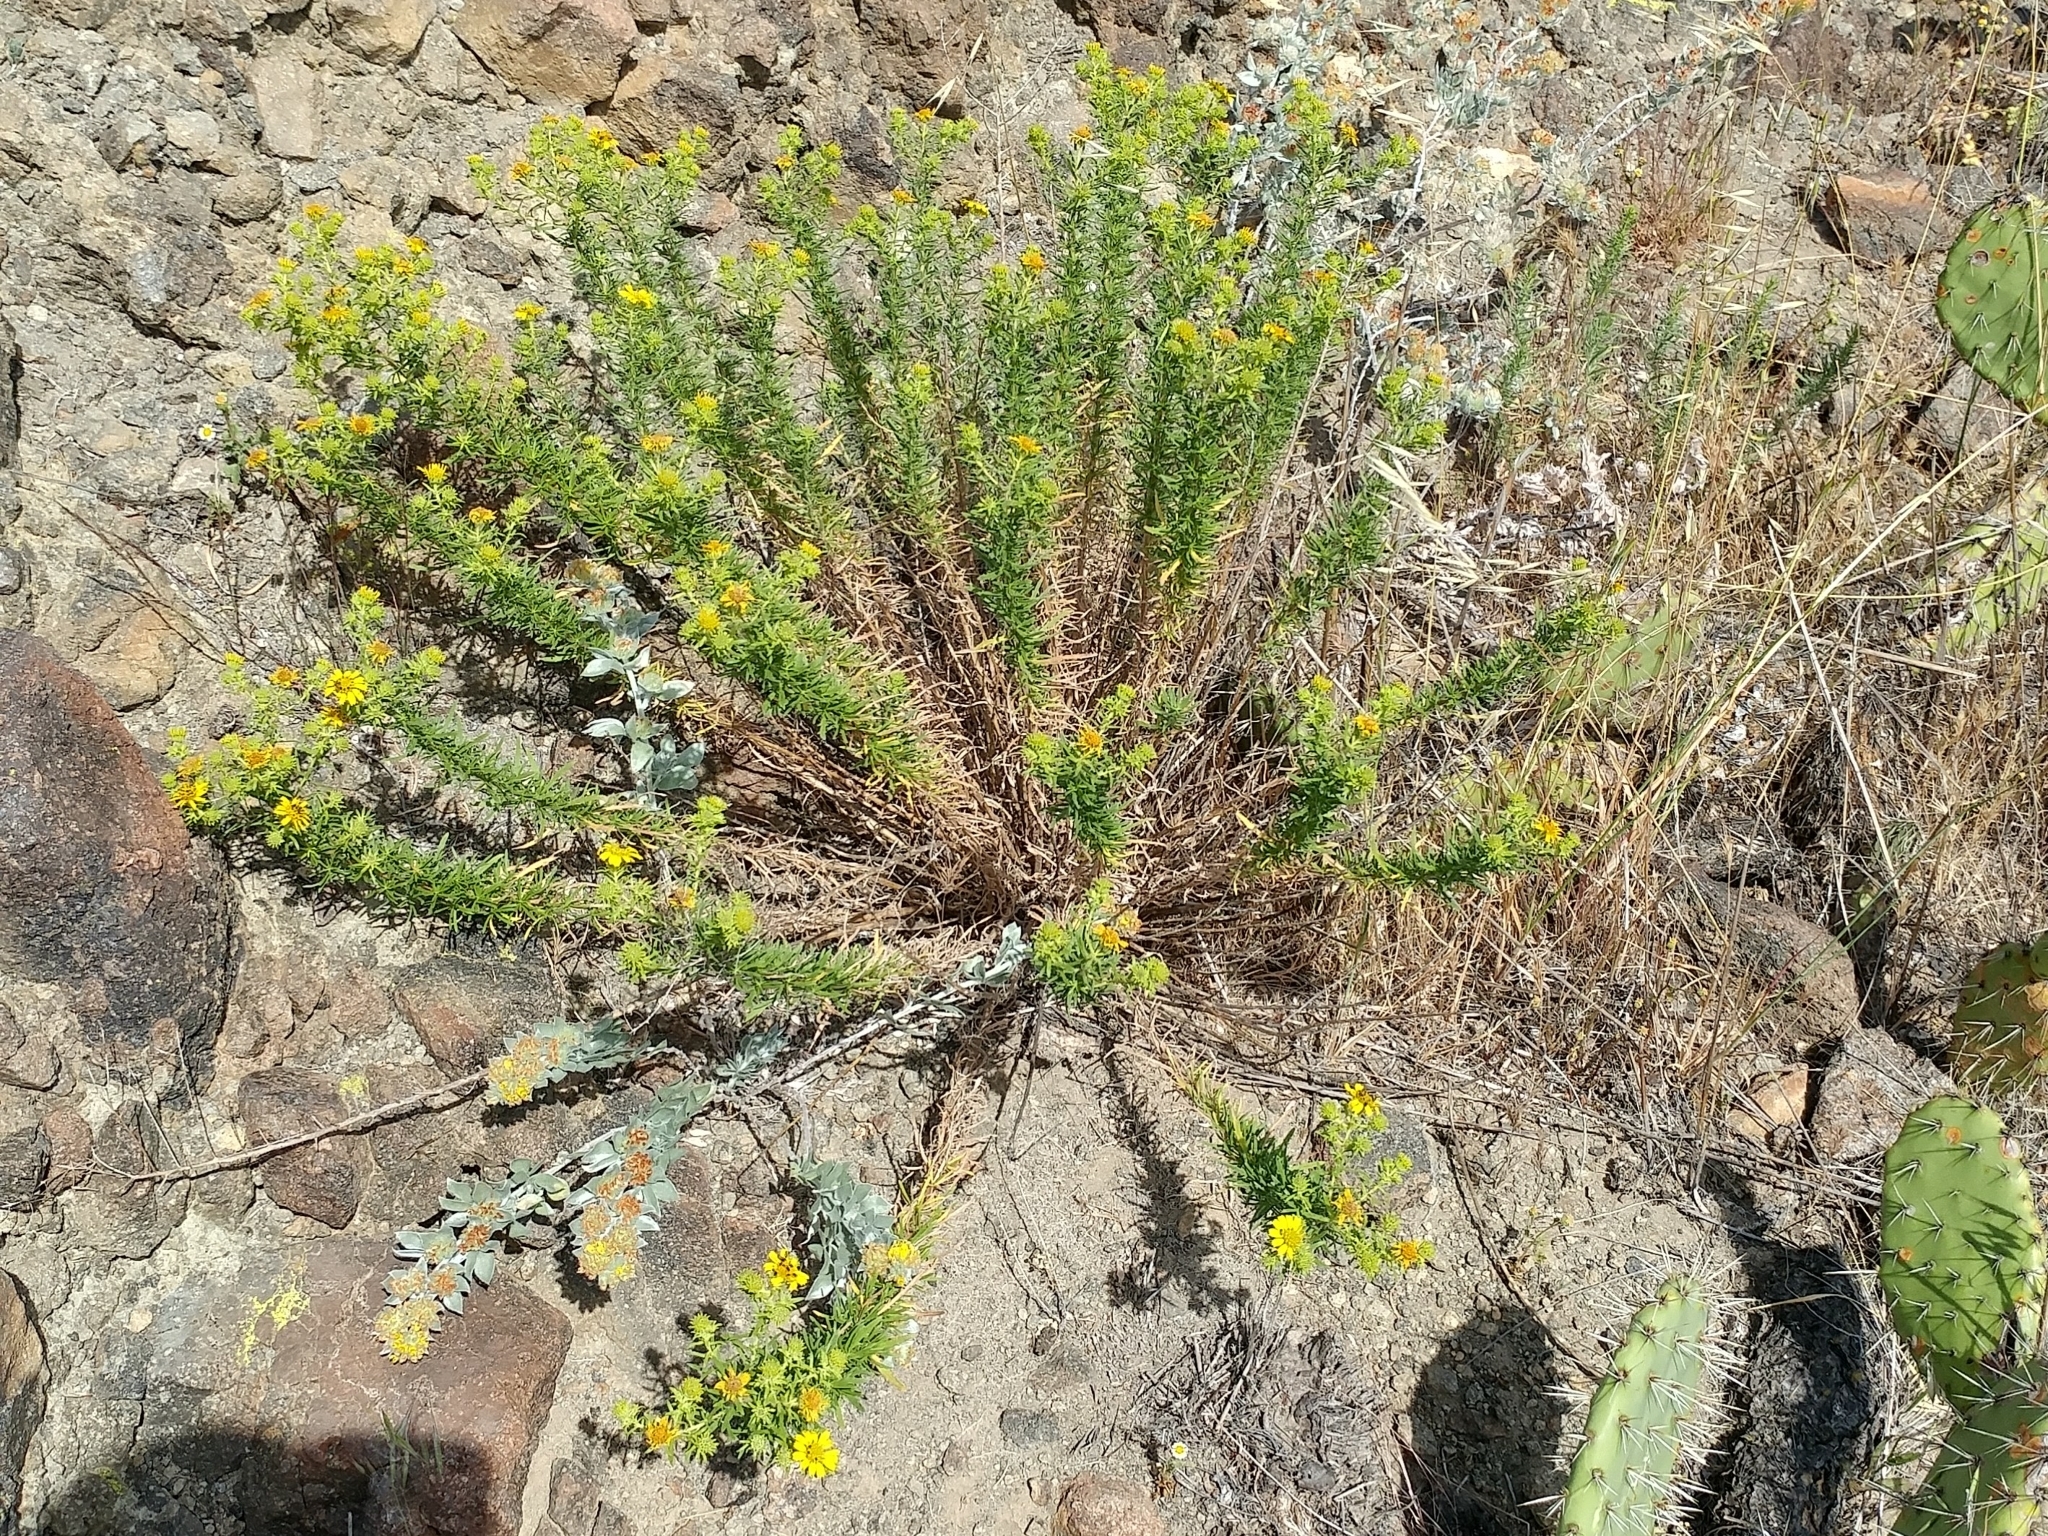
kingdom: Plantae
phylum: Tracheophyta
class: Magnoliopsida
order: Asterales
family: Asteraceae
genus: Deinandra
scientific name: Deinandra clementina
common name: Island tarplant
